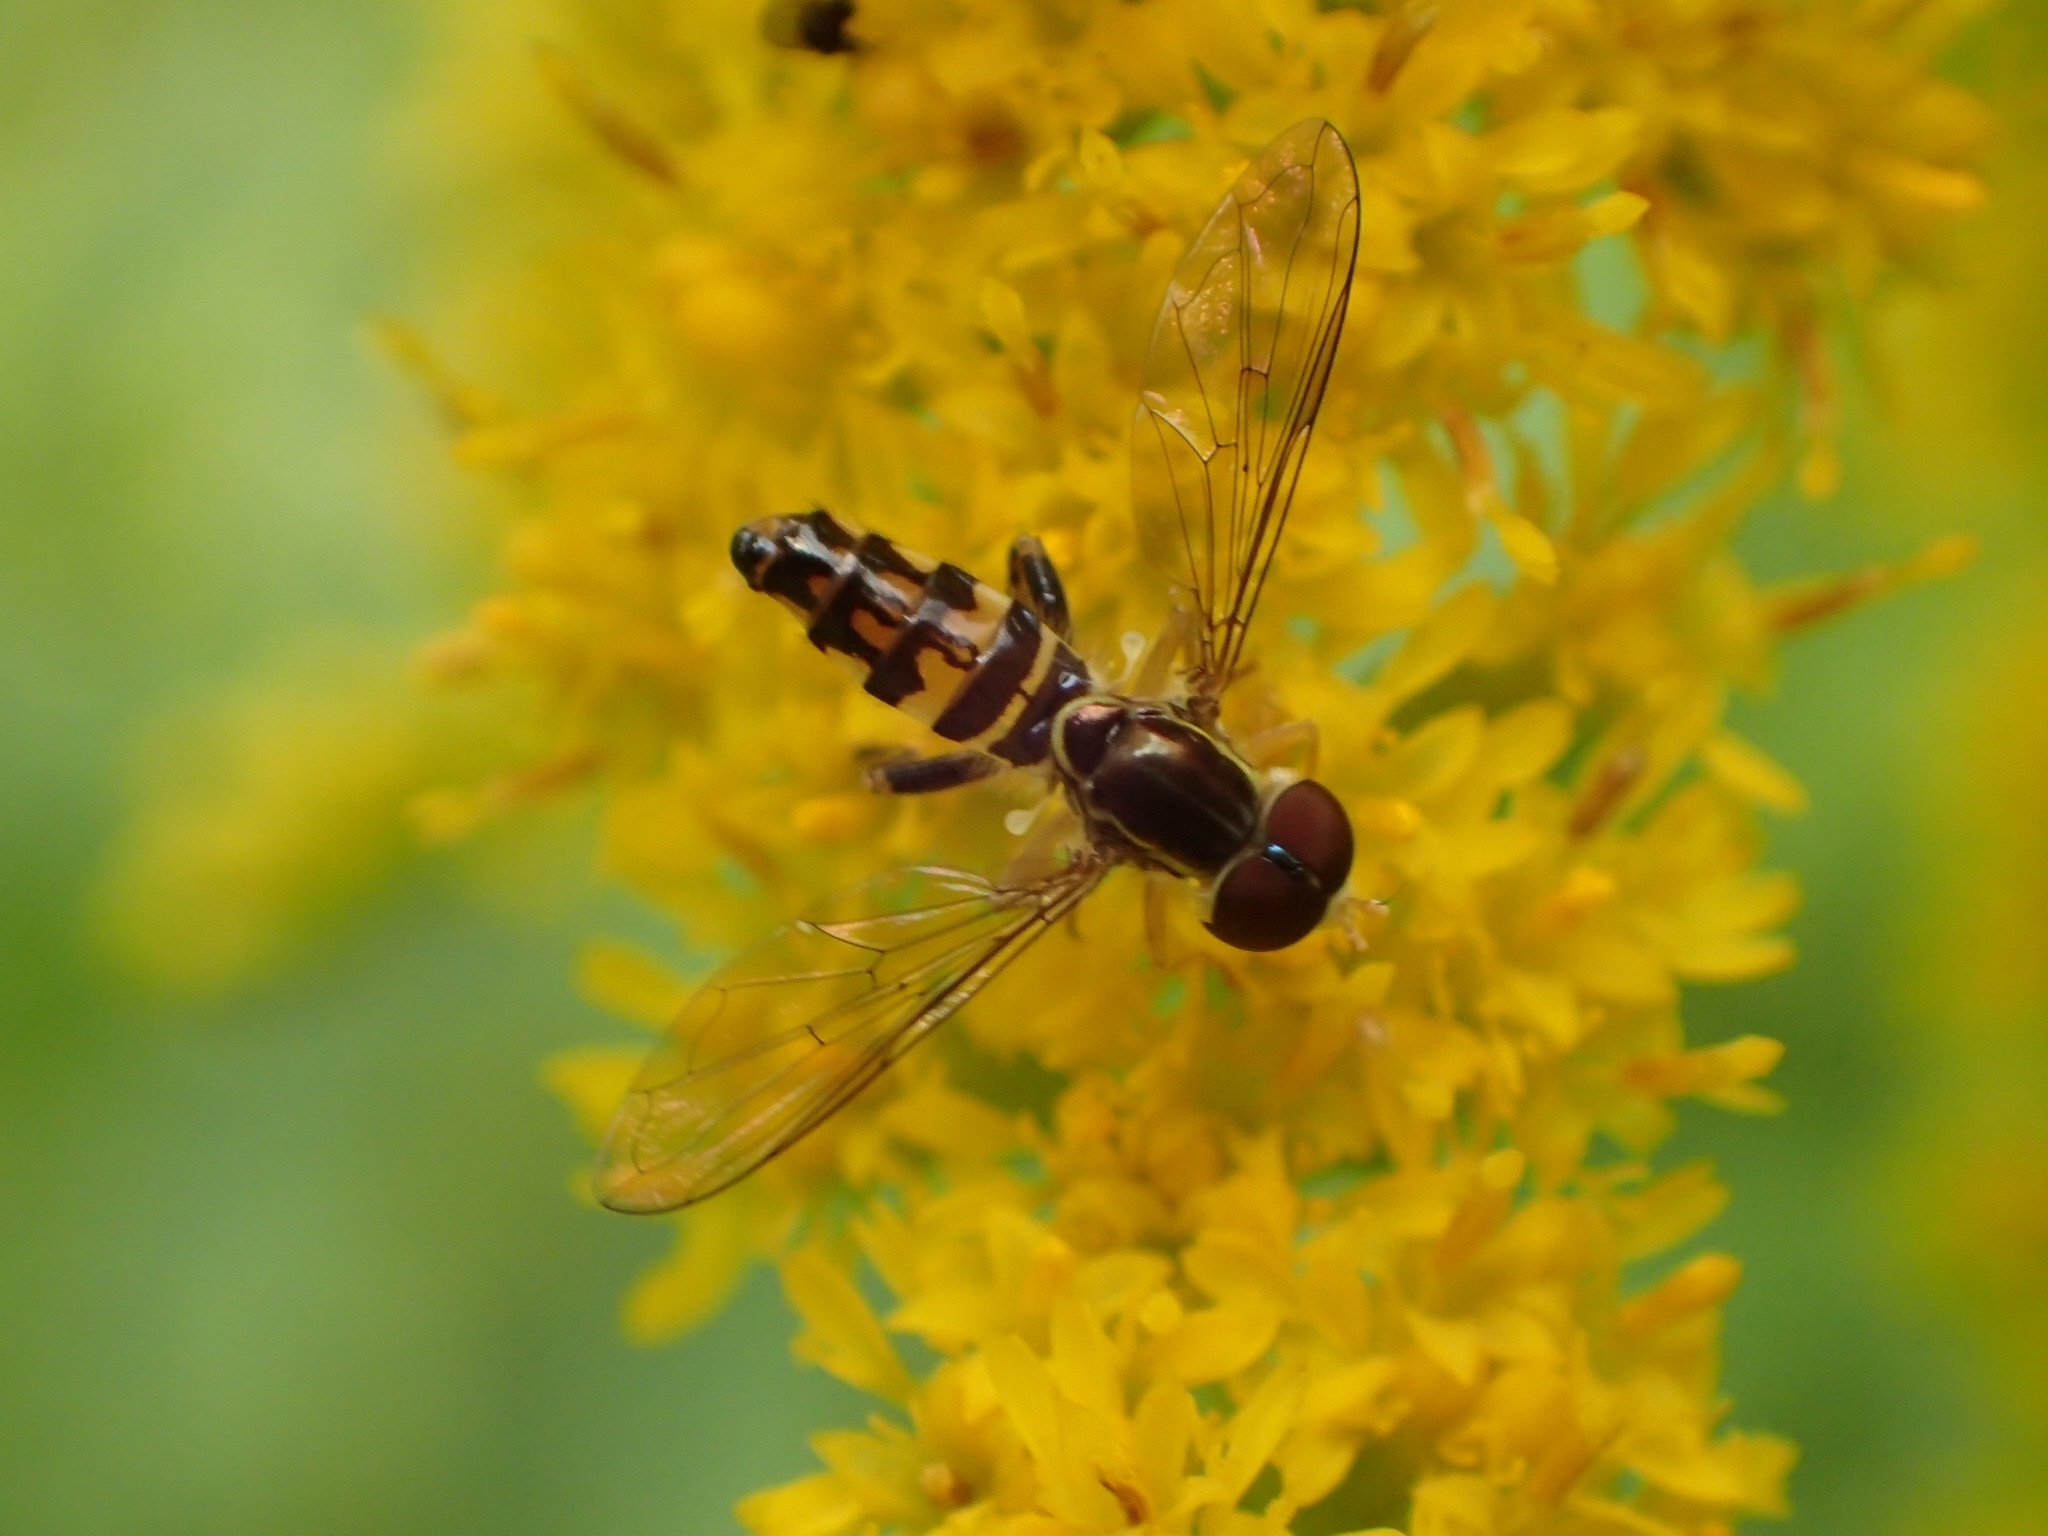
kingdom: Animalia
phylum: Arthropoda
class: Insecta
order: Diptera
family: Syrphidae
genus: Toxomerus
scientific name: Toxomerus geminatus
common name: Eastern calligrapher
